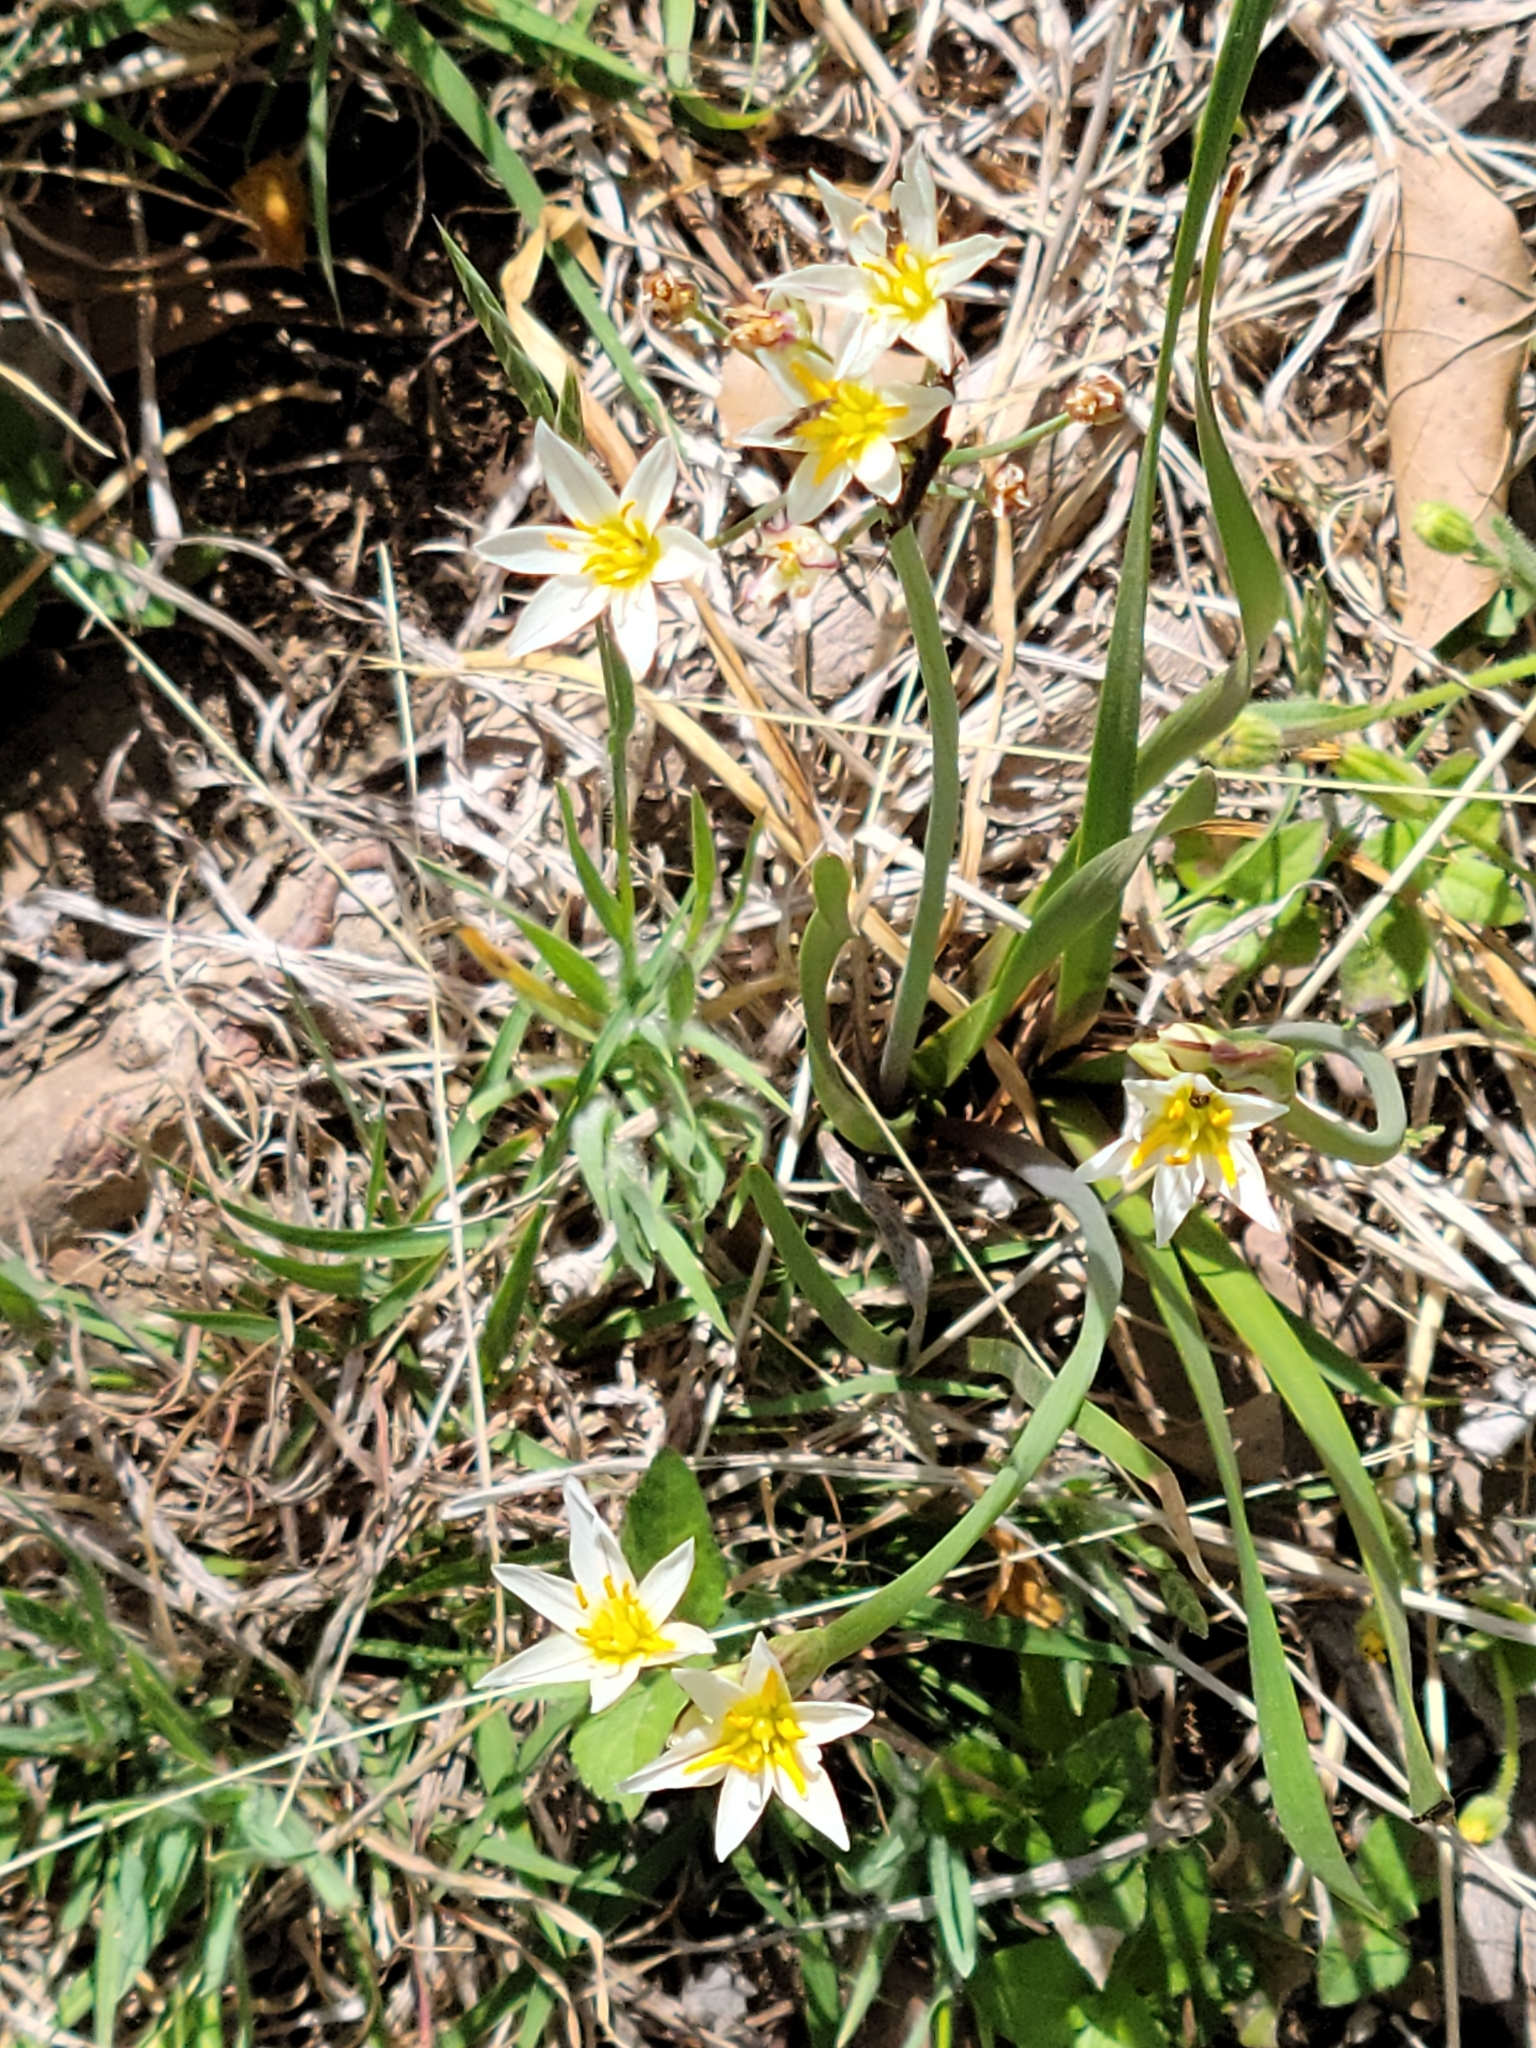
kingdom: Plantae
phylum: Tracheophyta
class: Liliopsida
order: Asparagales
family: Amaryllidaceae
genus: Nothoscordum
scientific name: Nothoscordum bivalve
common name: Crow-poison
